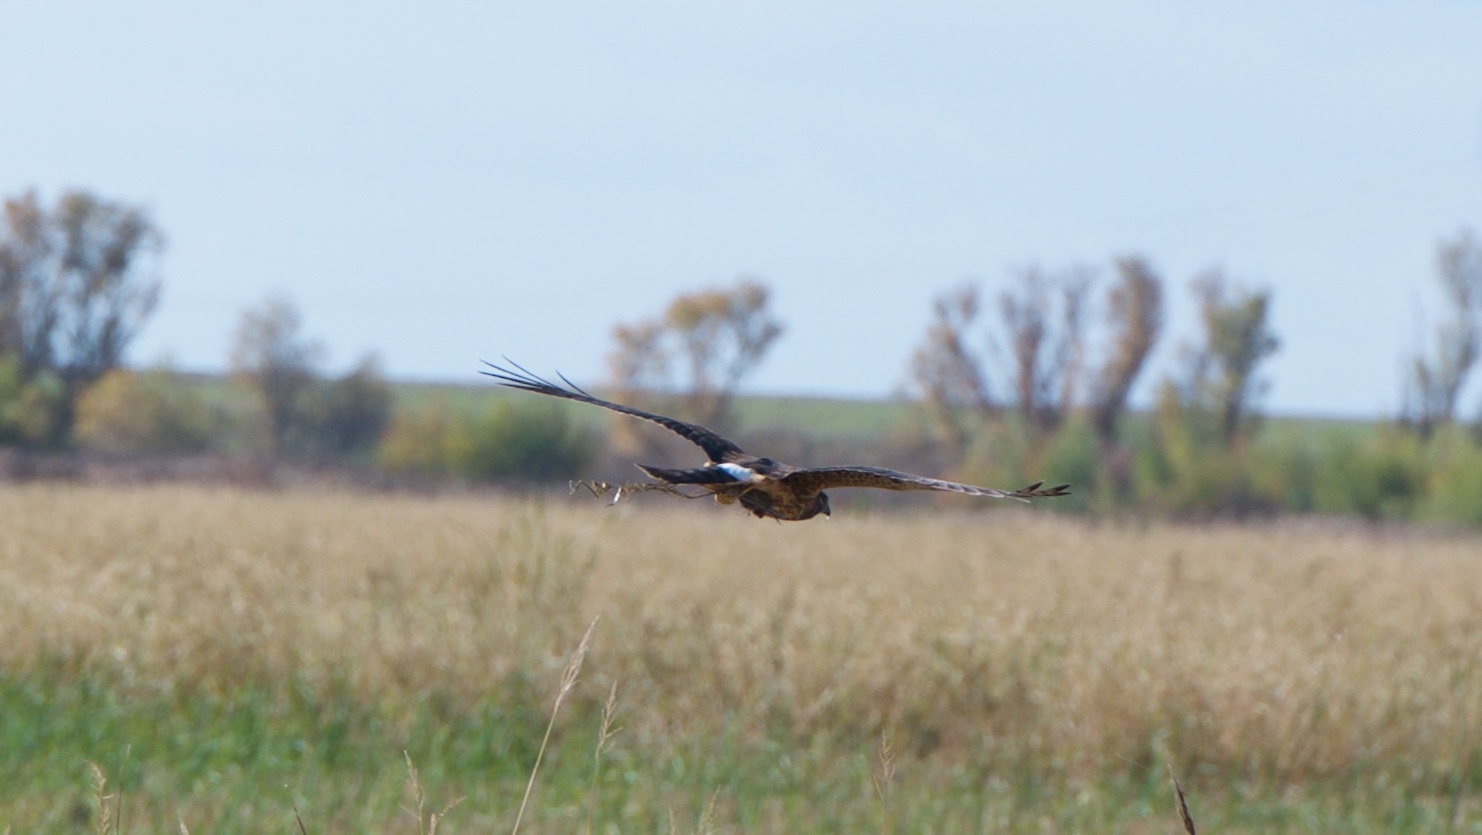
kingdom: Animalia
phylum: Chordata
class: Aves
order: Accipitriformes
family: Accipitridae
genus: Circus
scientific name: Circus cyaneus
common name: Hen harrier
